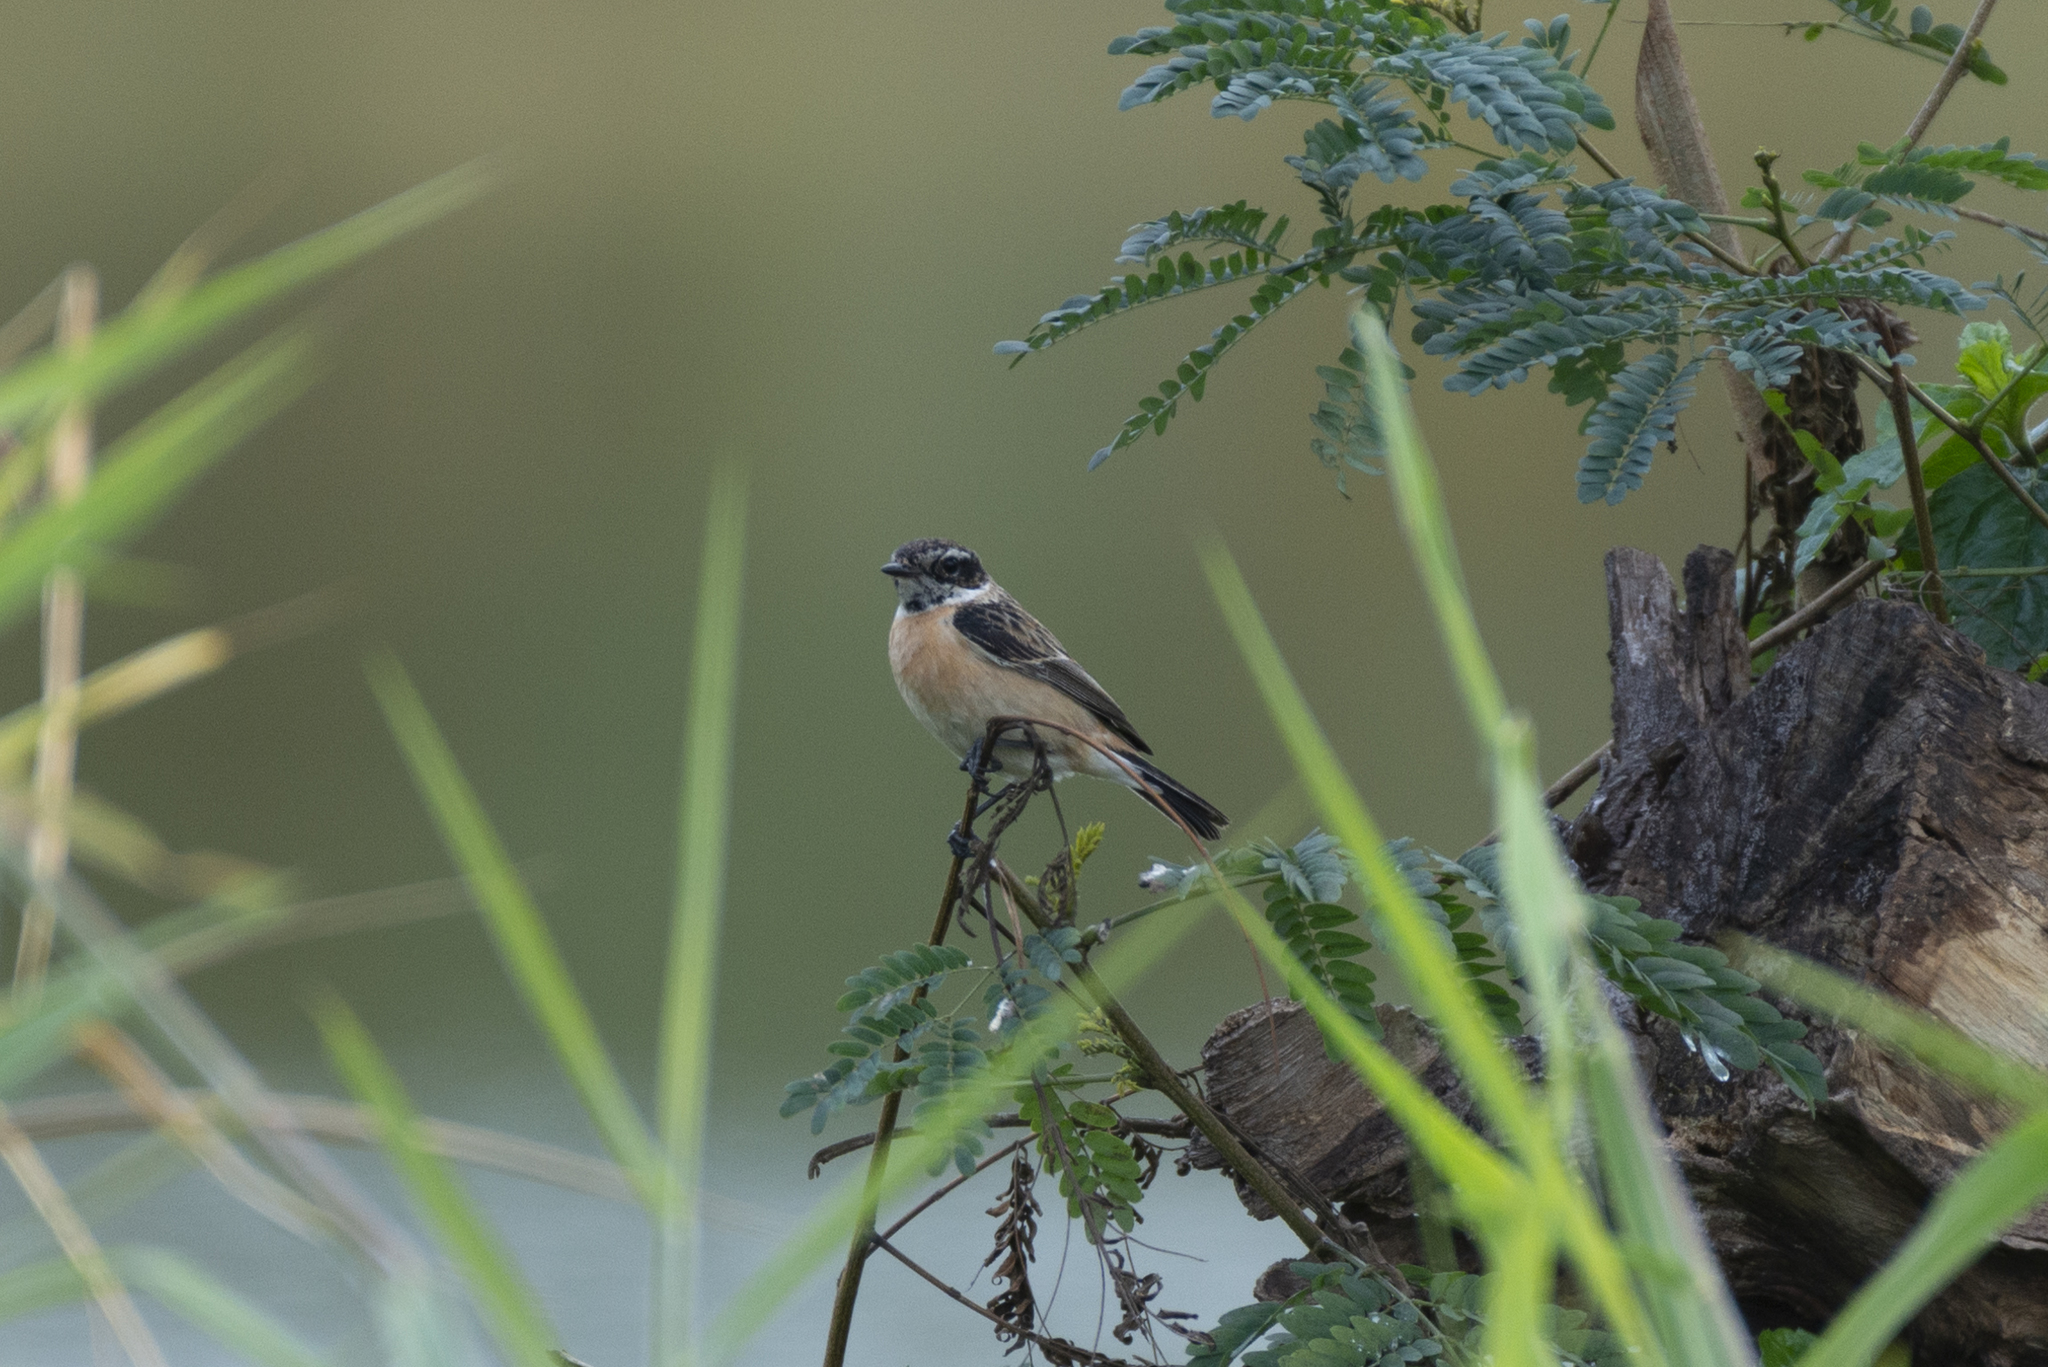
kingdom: Animalia
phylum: Chordata
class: Aves
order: Passeriformes
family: Muscicapidae
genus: Saxicola
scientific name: Saxicola maurus
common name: Siberian stonechat
